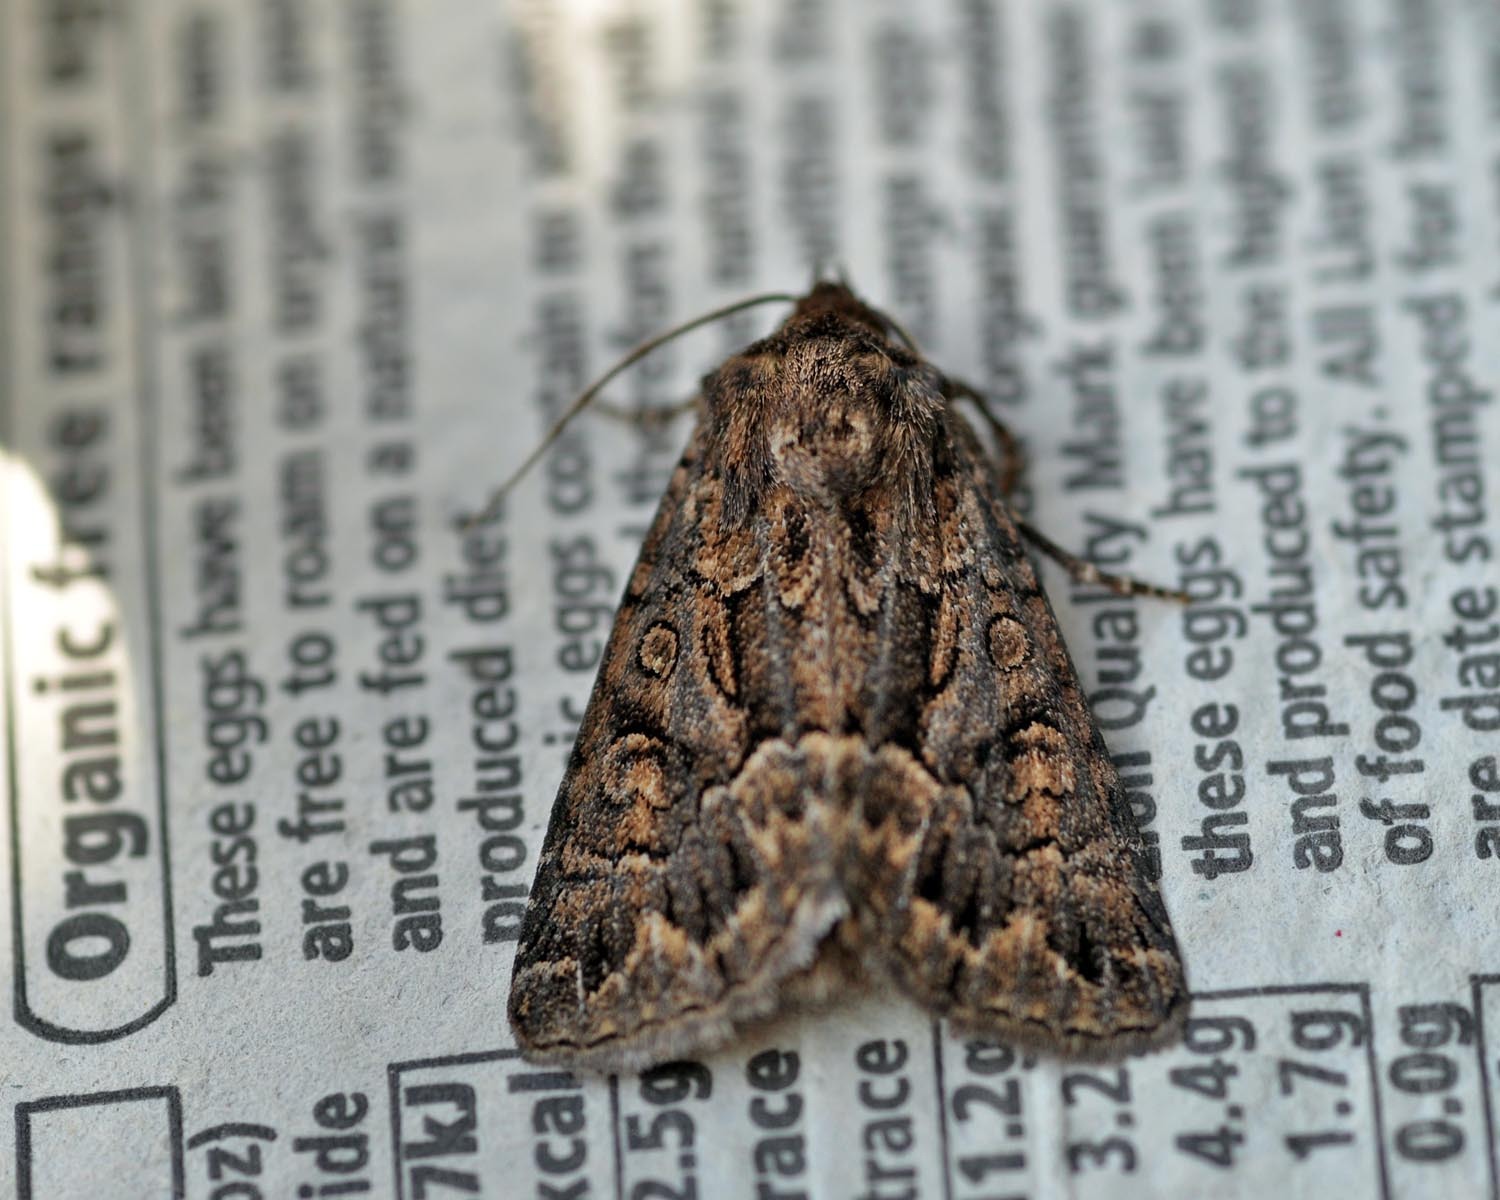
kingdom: Animalia
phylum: Arthropoda
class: Insecta
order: Lepidoptera
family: Noctuidae
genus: Thalpophila
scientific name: Thalpophila matura
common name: Straw underwing
